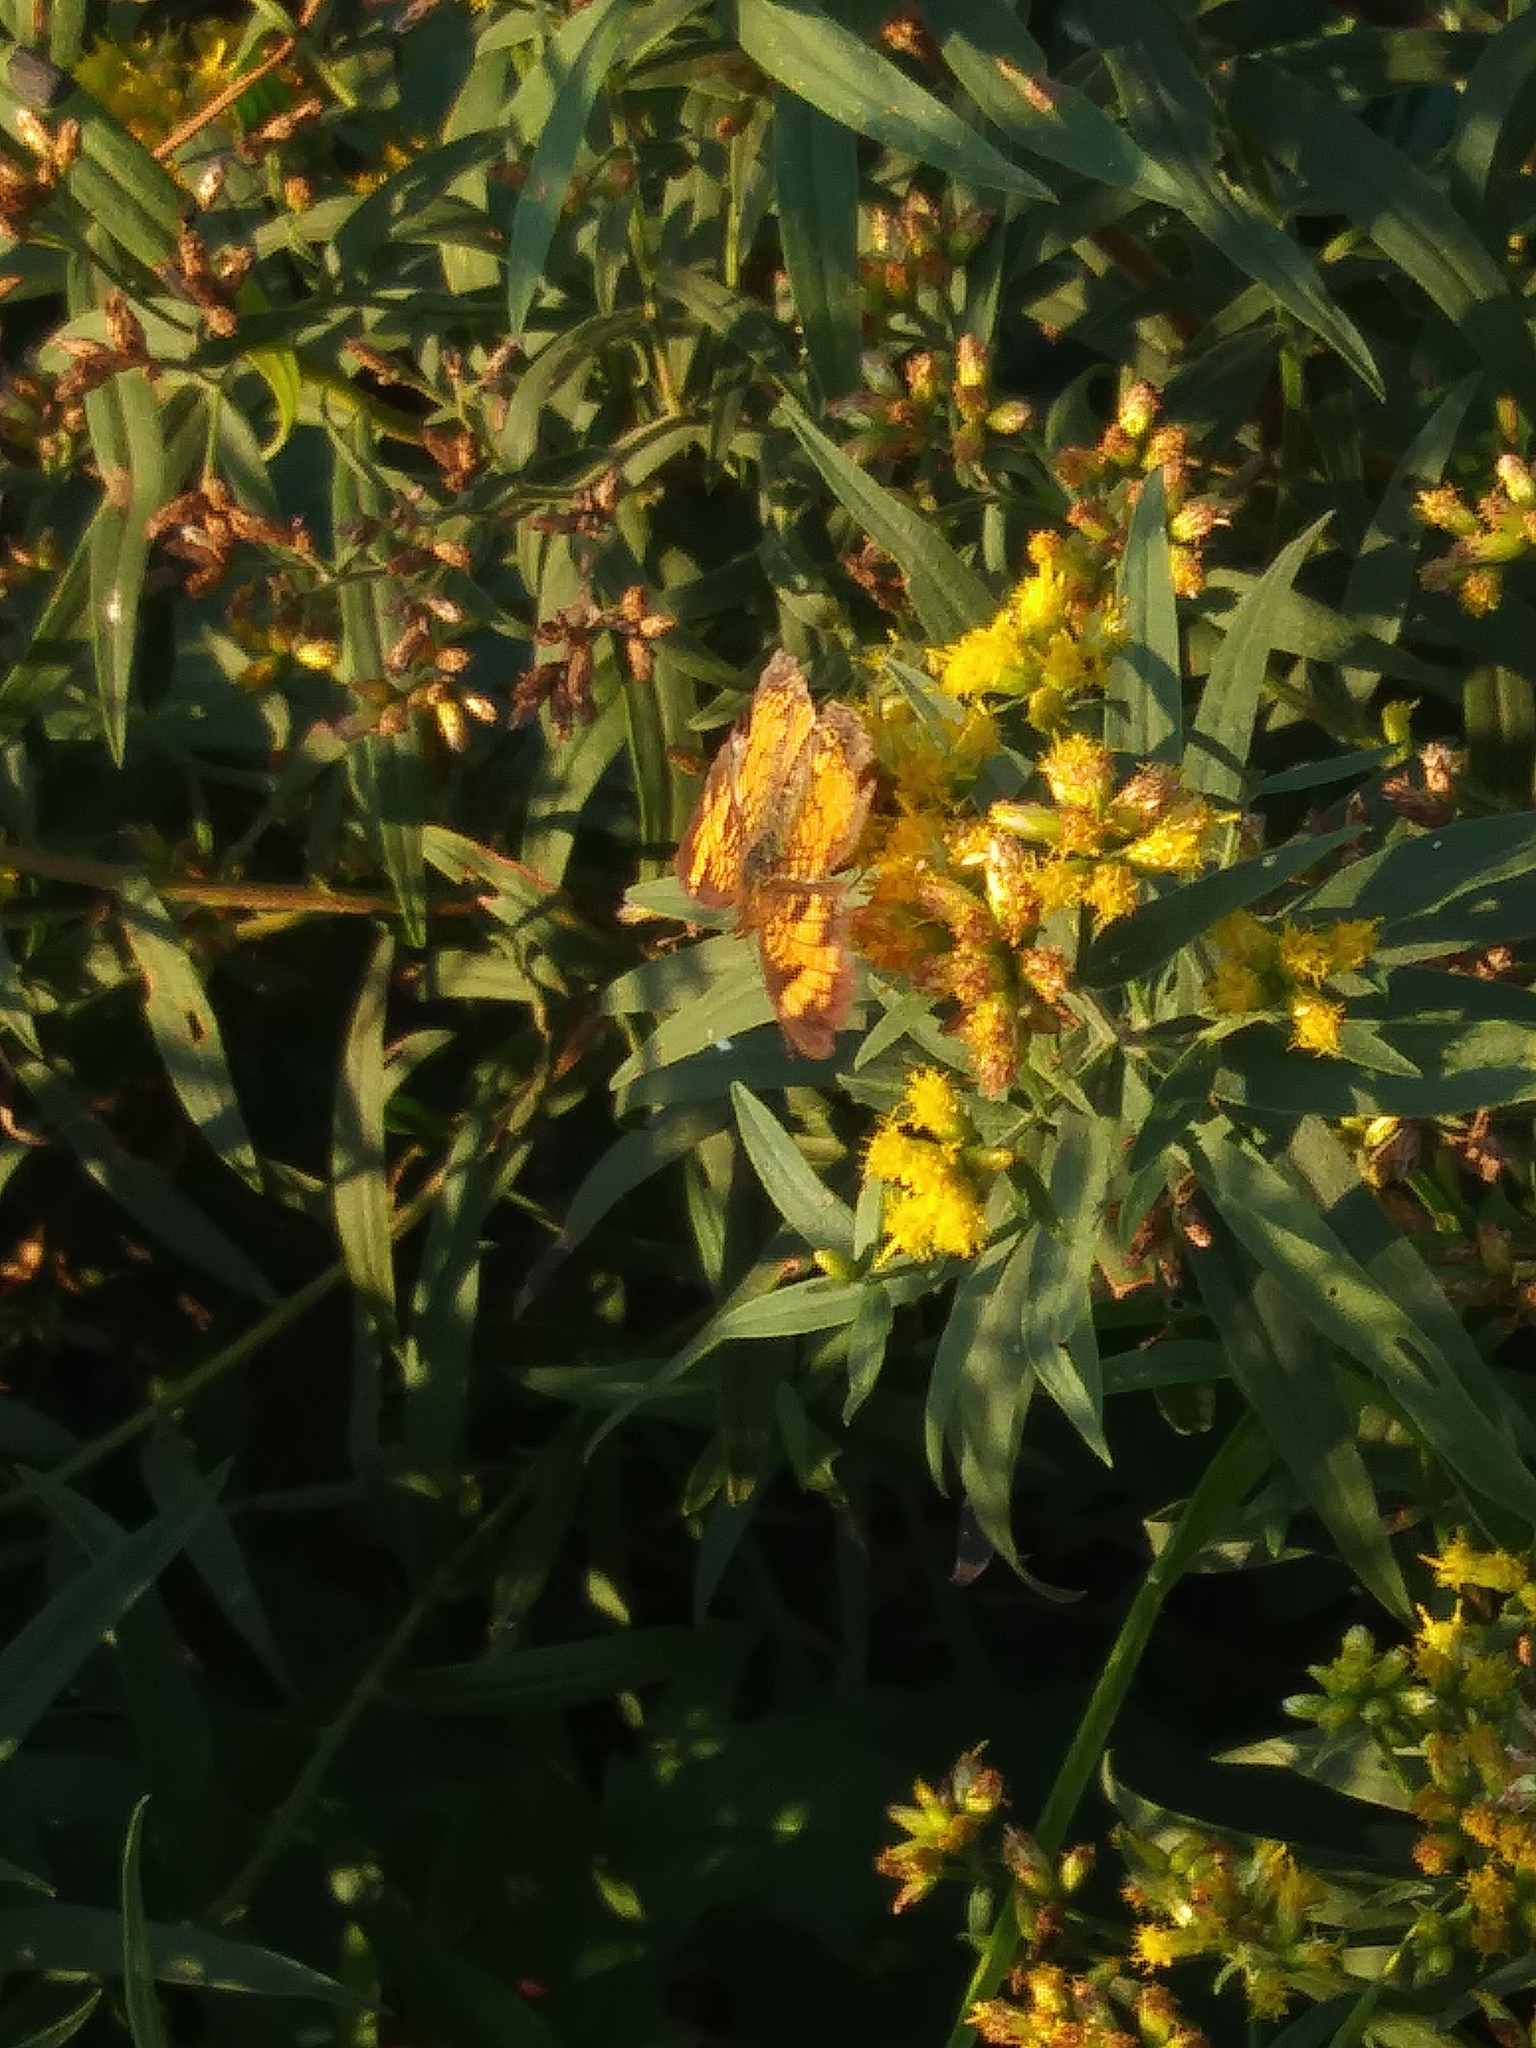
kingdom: Animalia
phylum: Arthropoda
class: Insecta
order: Lepidoptera
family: Nymphalidae
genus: Phyciodes
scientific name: Phyciodes tharos
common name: Pearl crescent
